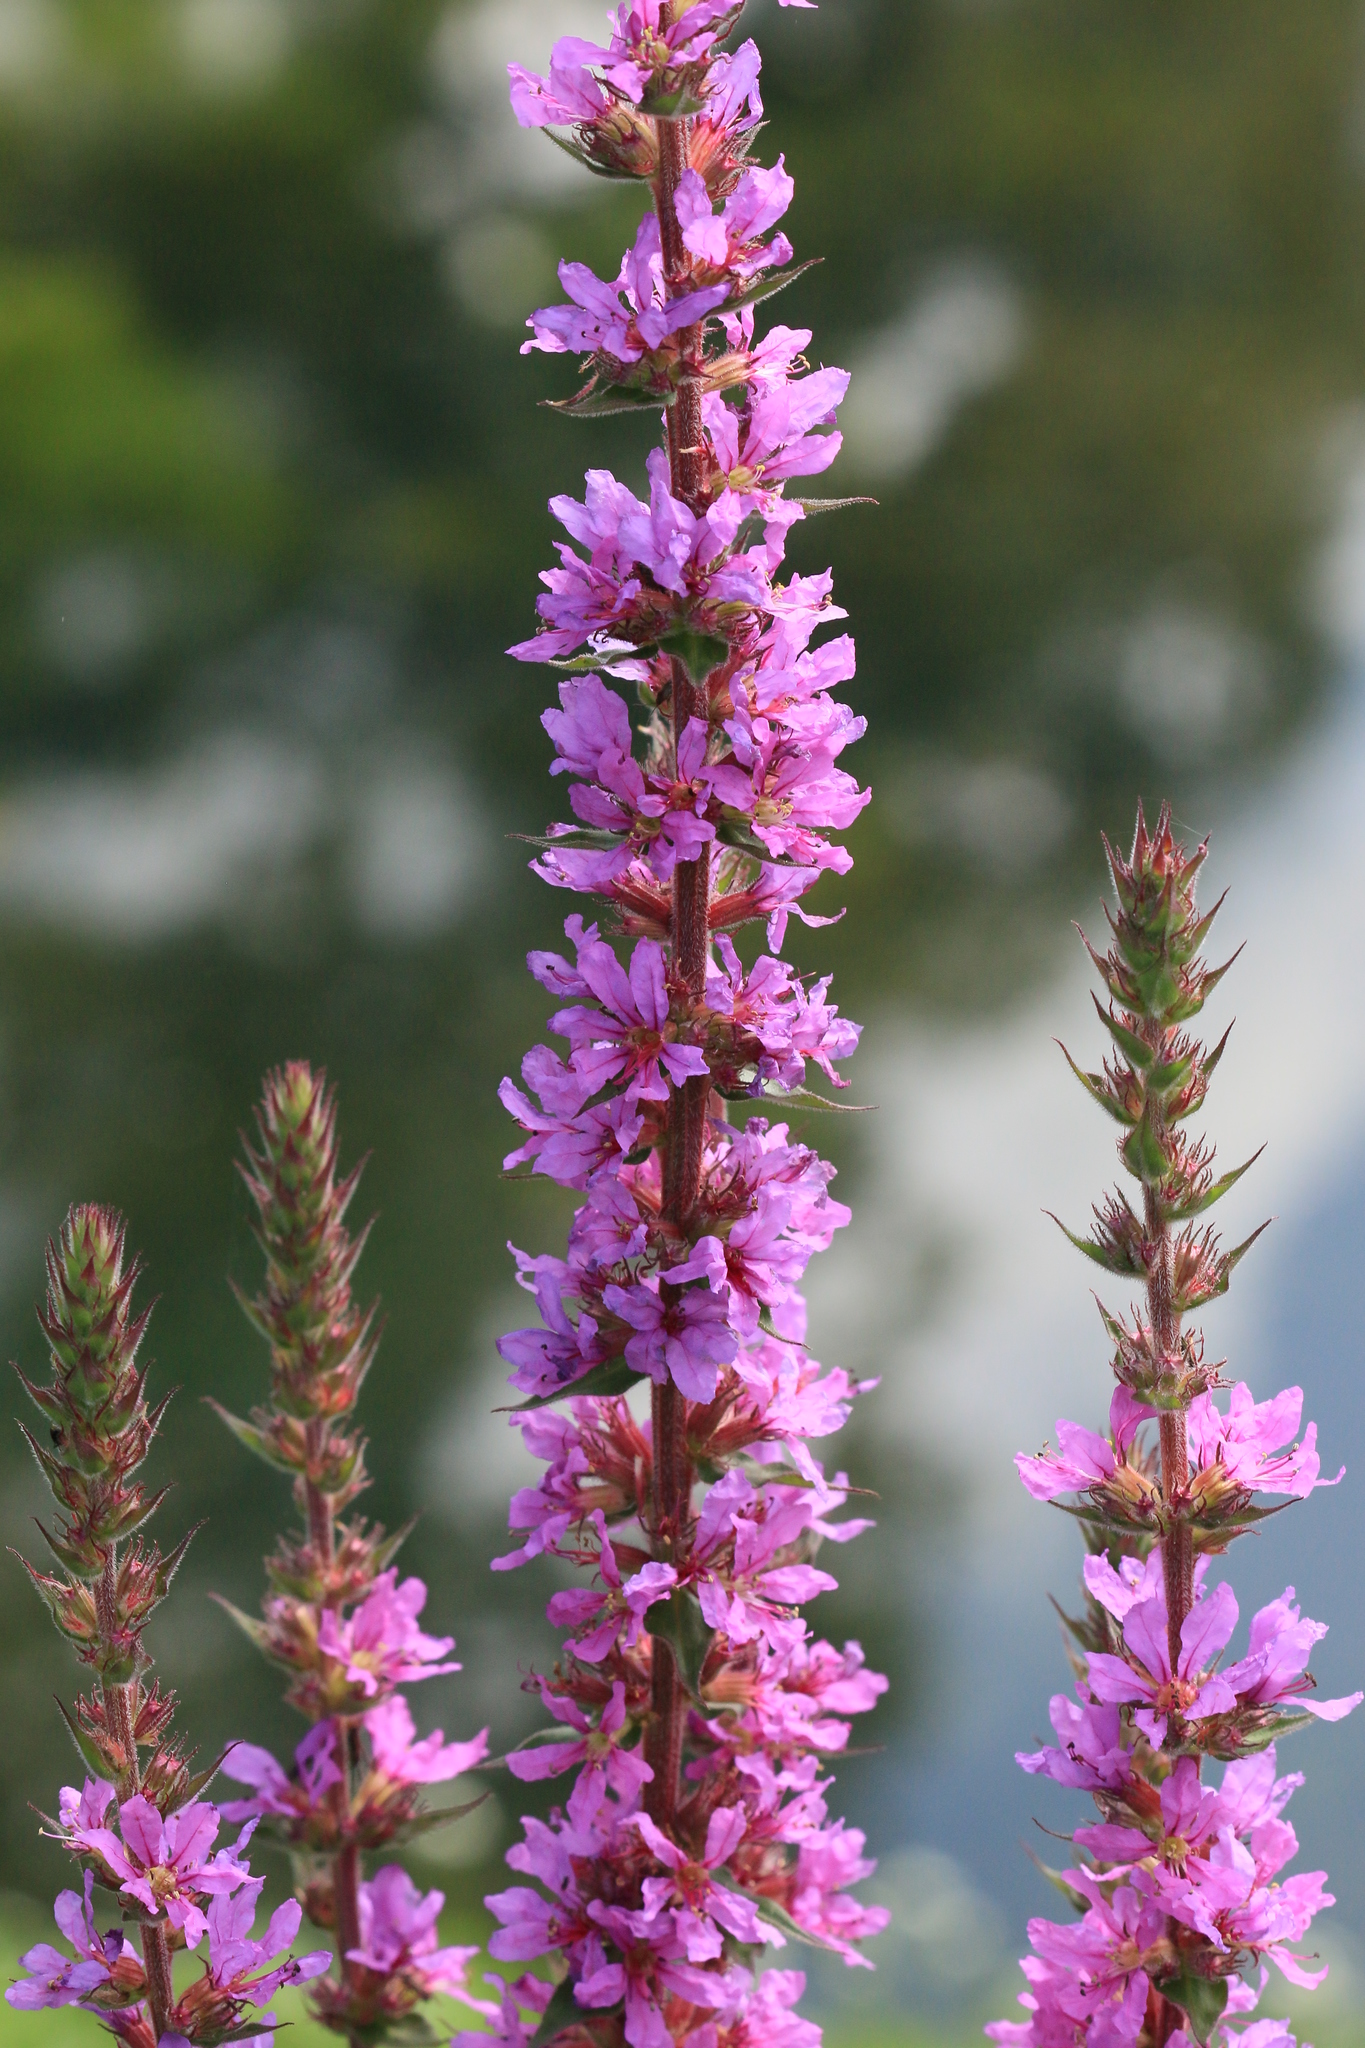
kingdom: Plantae
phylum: Tracheophyta
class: Magnoliopsida
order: Myrtales
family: Lythraceae
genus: Lythrum
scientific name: Lythrum salicaria
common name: Purple loosestrife
